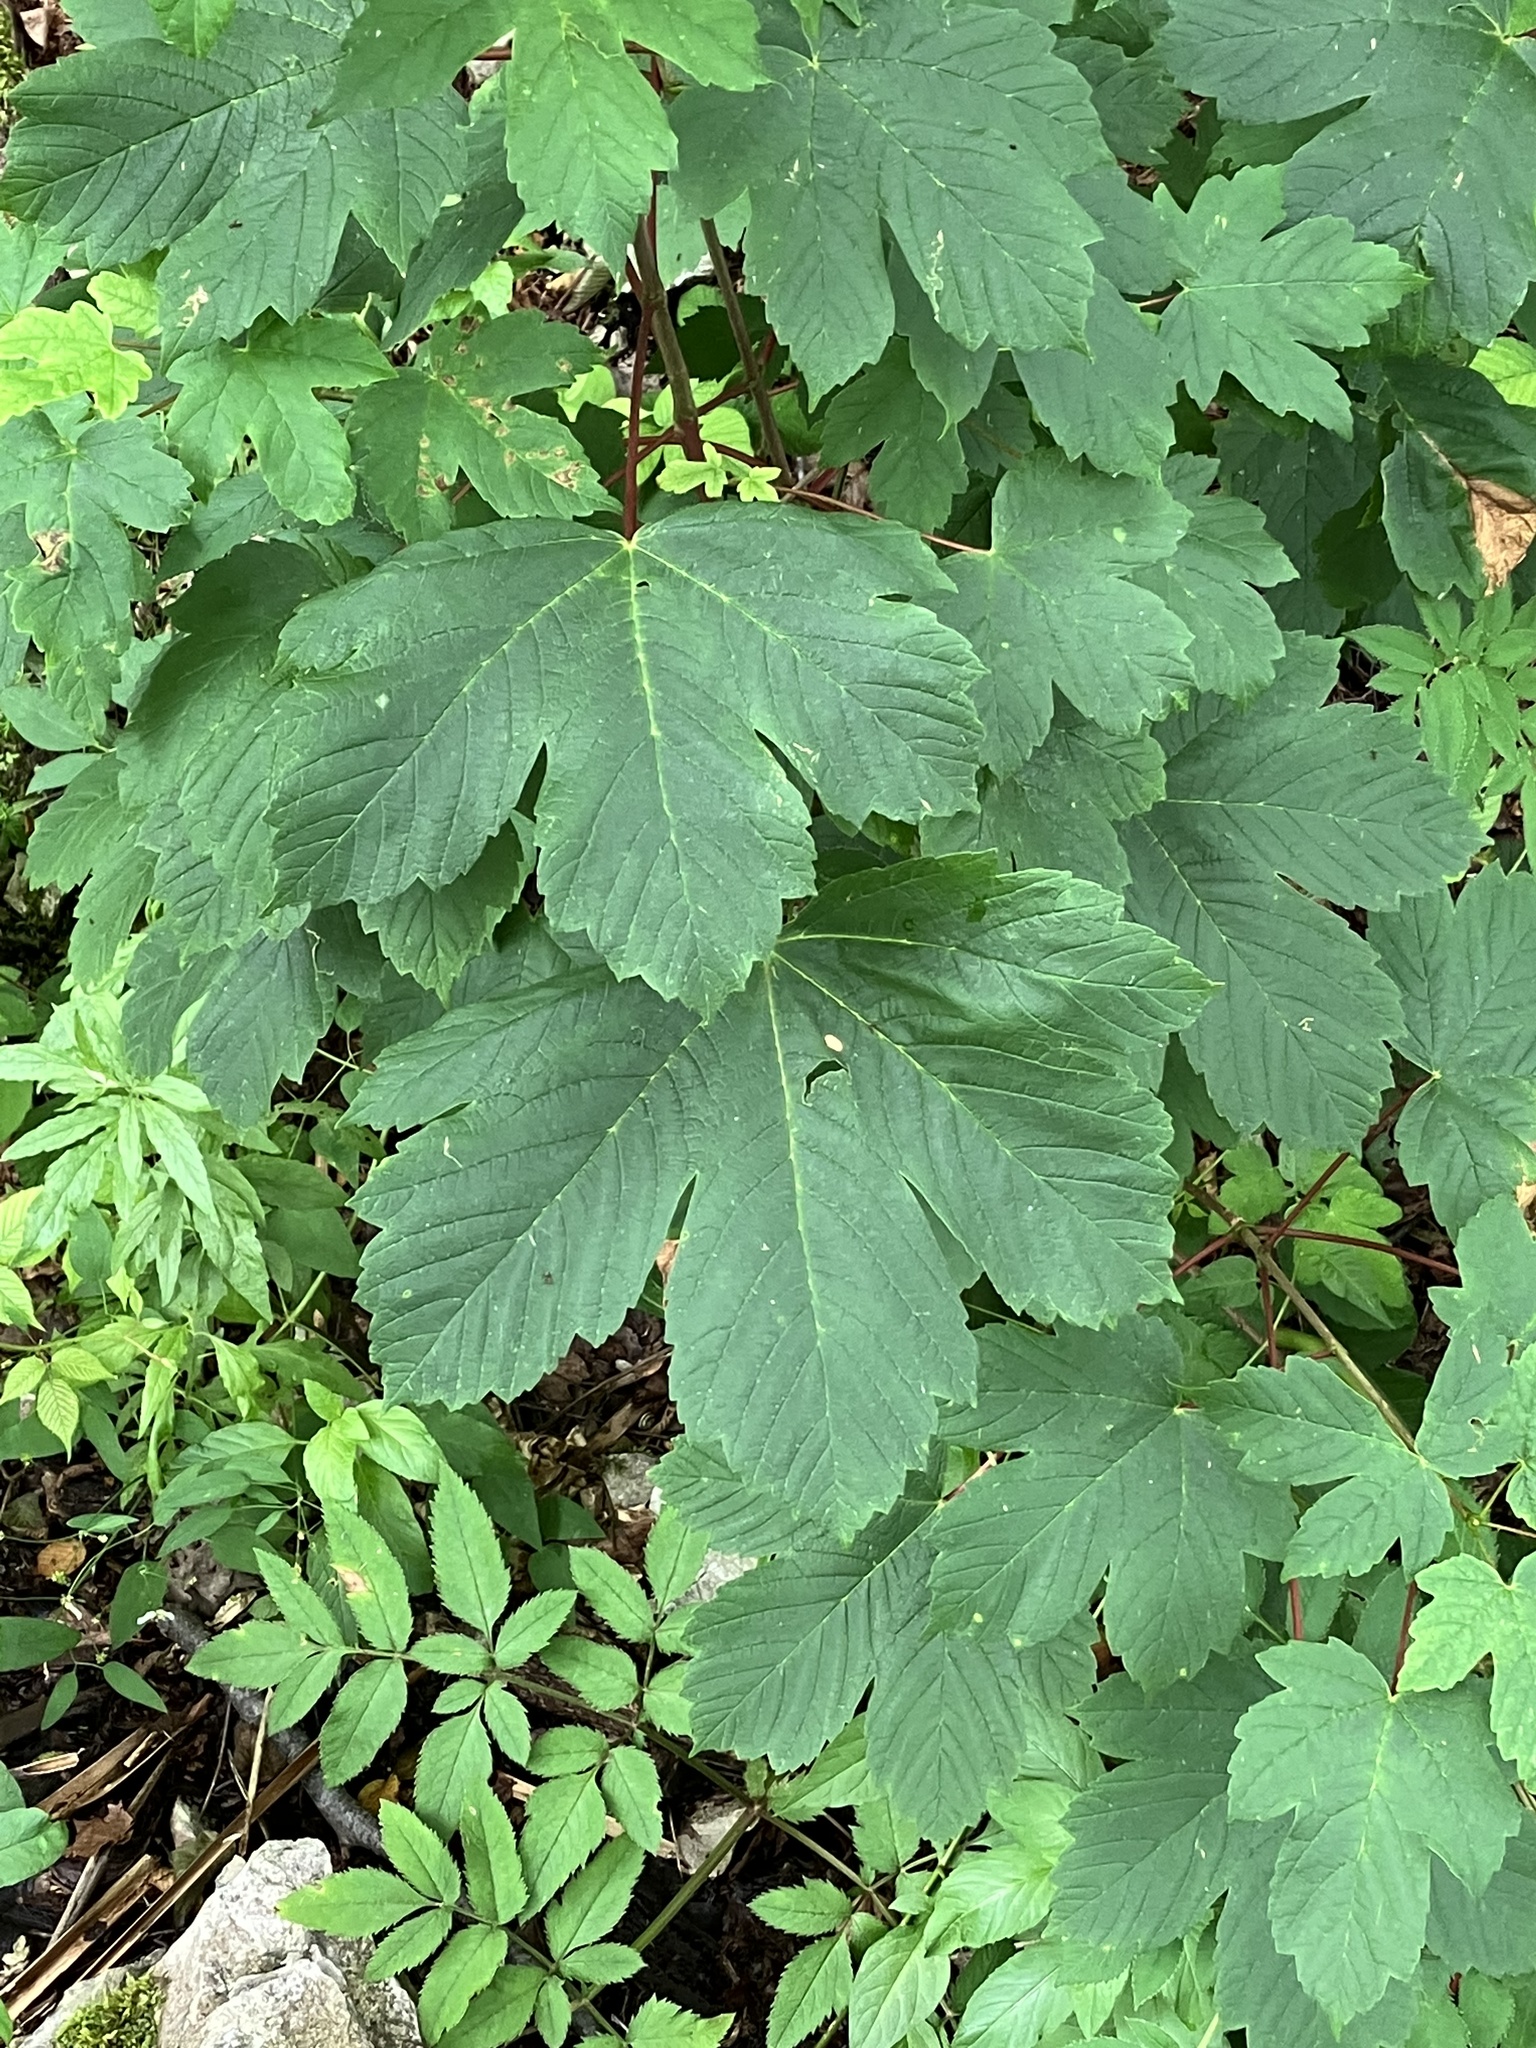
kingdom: Plantae
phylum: Tracheophyta
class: Magnoliopsida
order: Sapindales
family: Sapindaceae
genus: Acer
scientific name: Acer pseudoplatanus
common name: Sycamore
